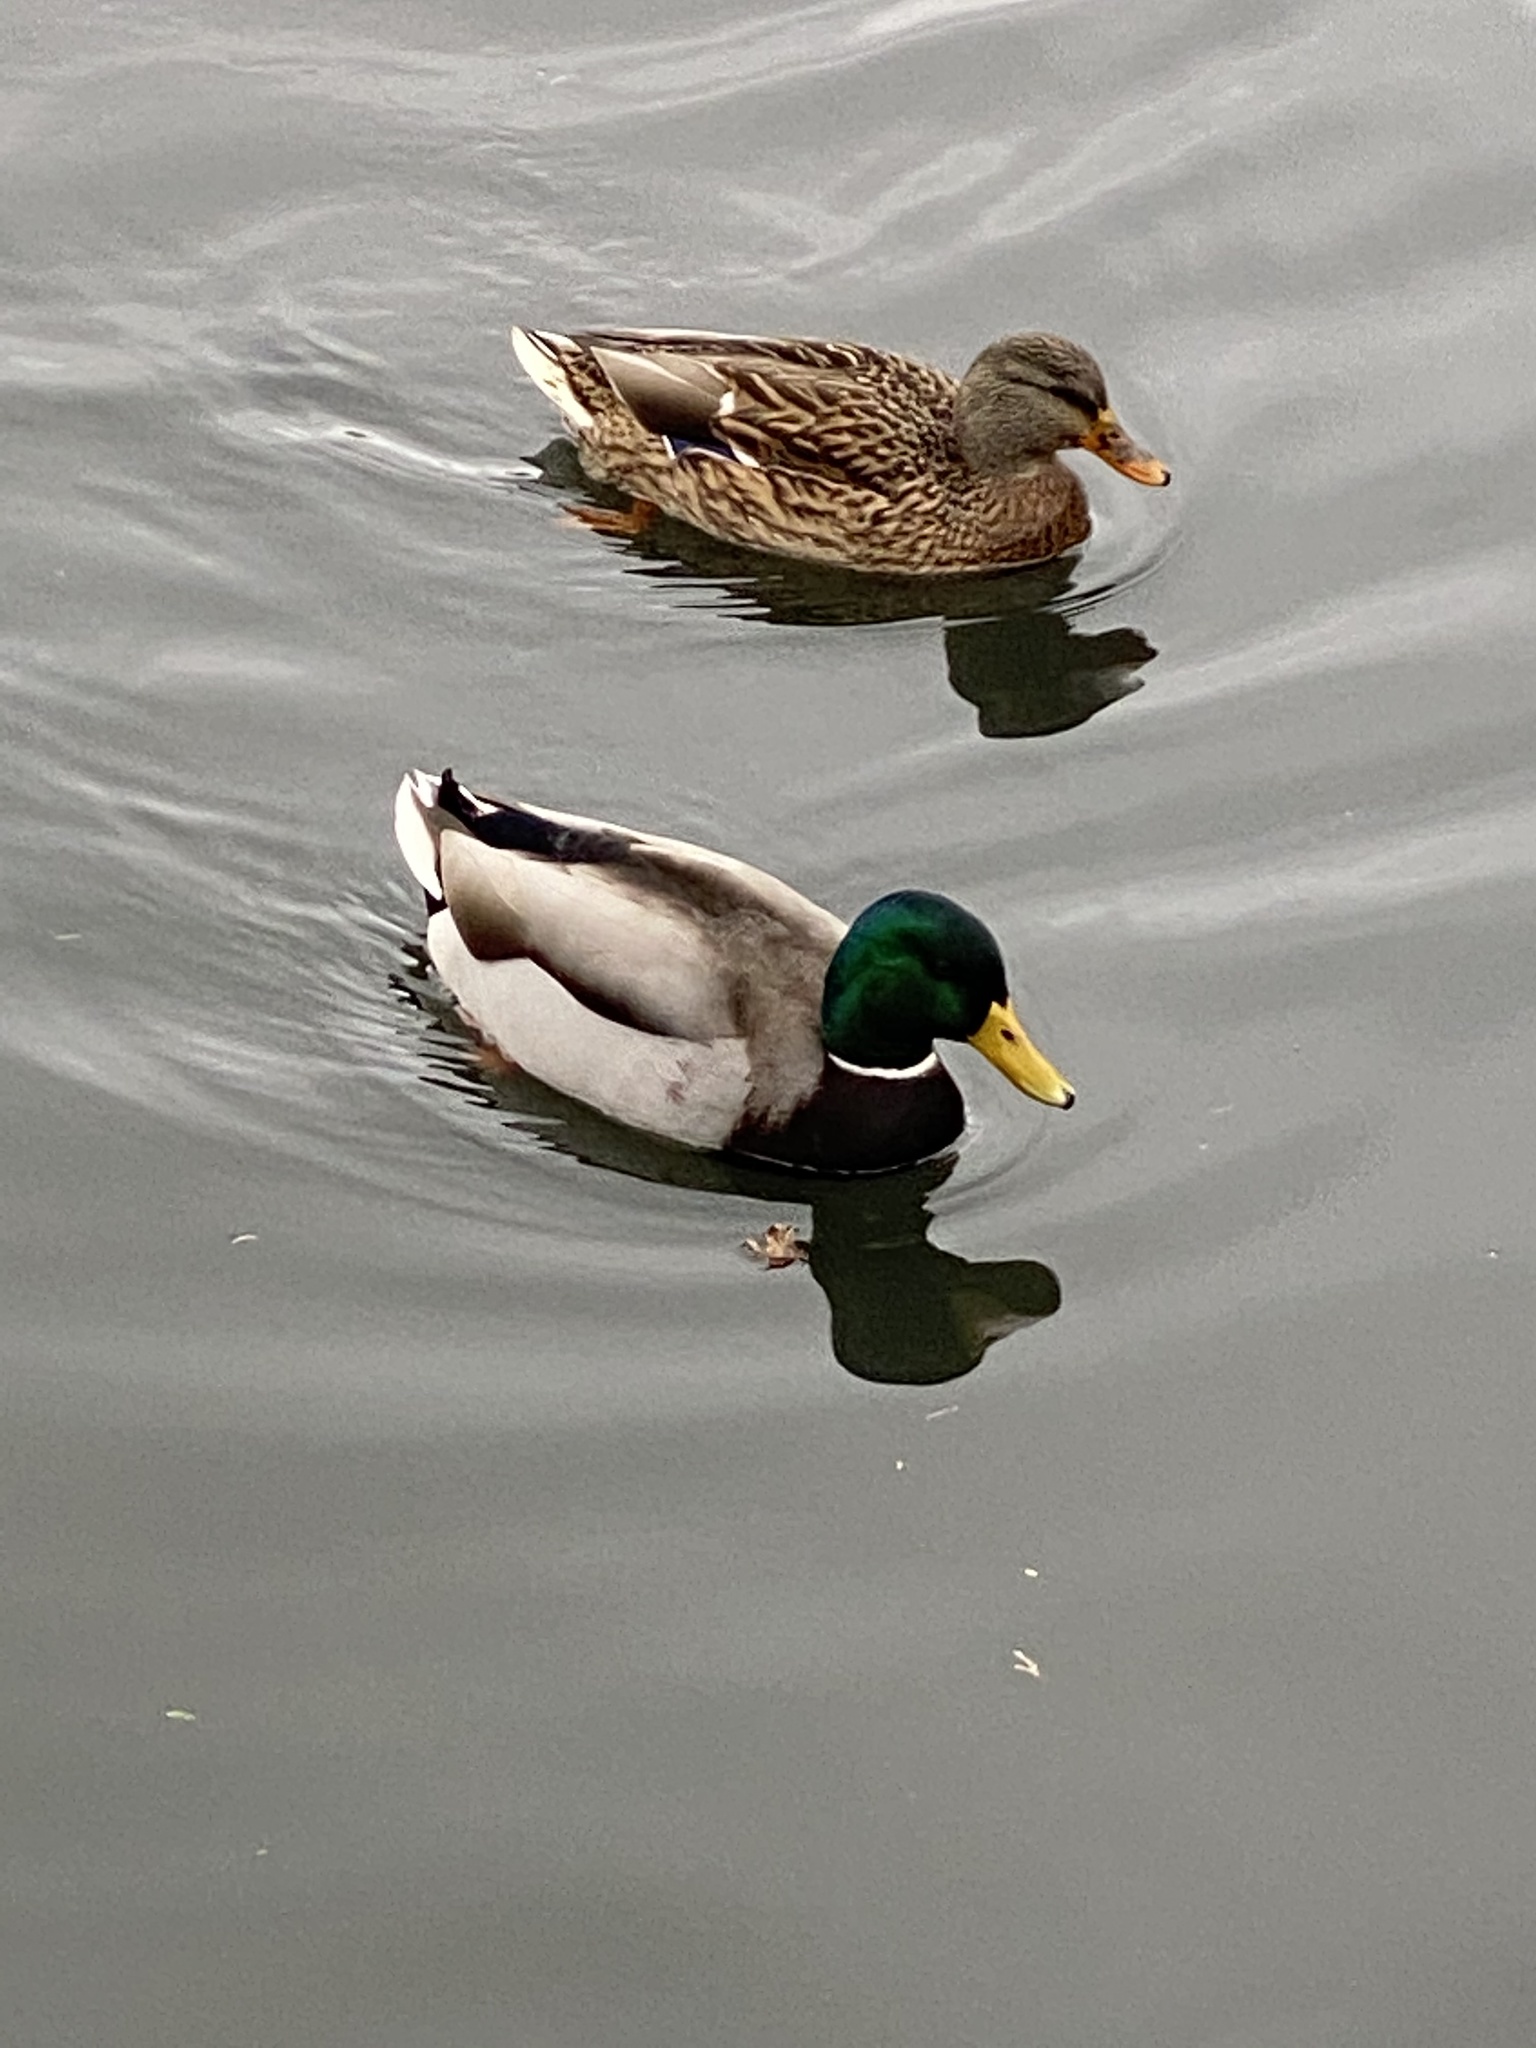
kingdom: Animalia
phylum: Chordata
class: Aves
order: Anseriformes
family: Anatidae
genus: Anas
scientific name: Anas platyrhynchos
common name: Mallard
